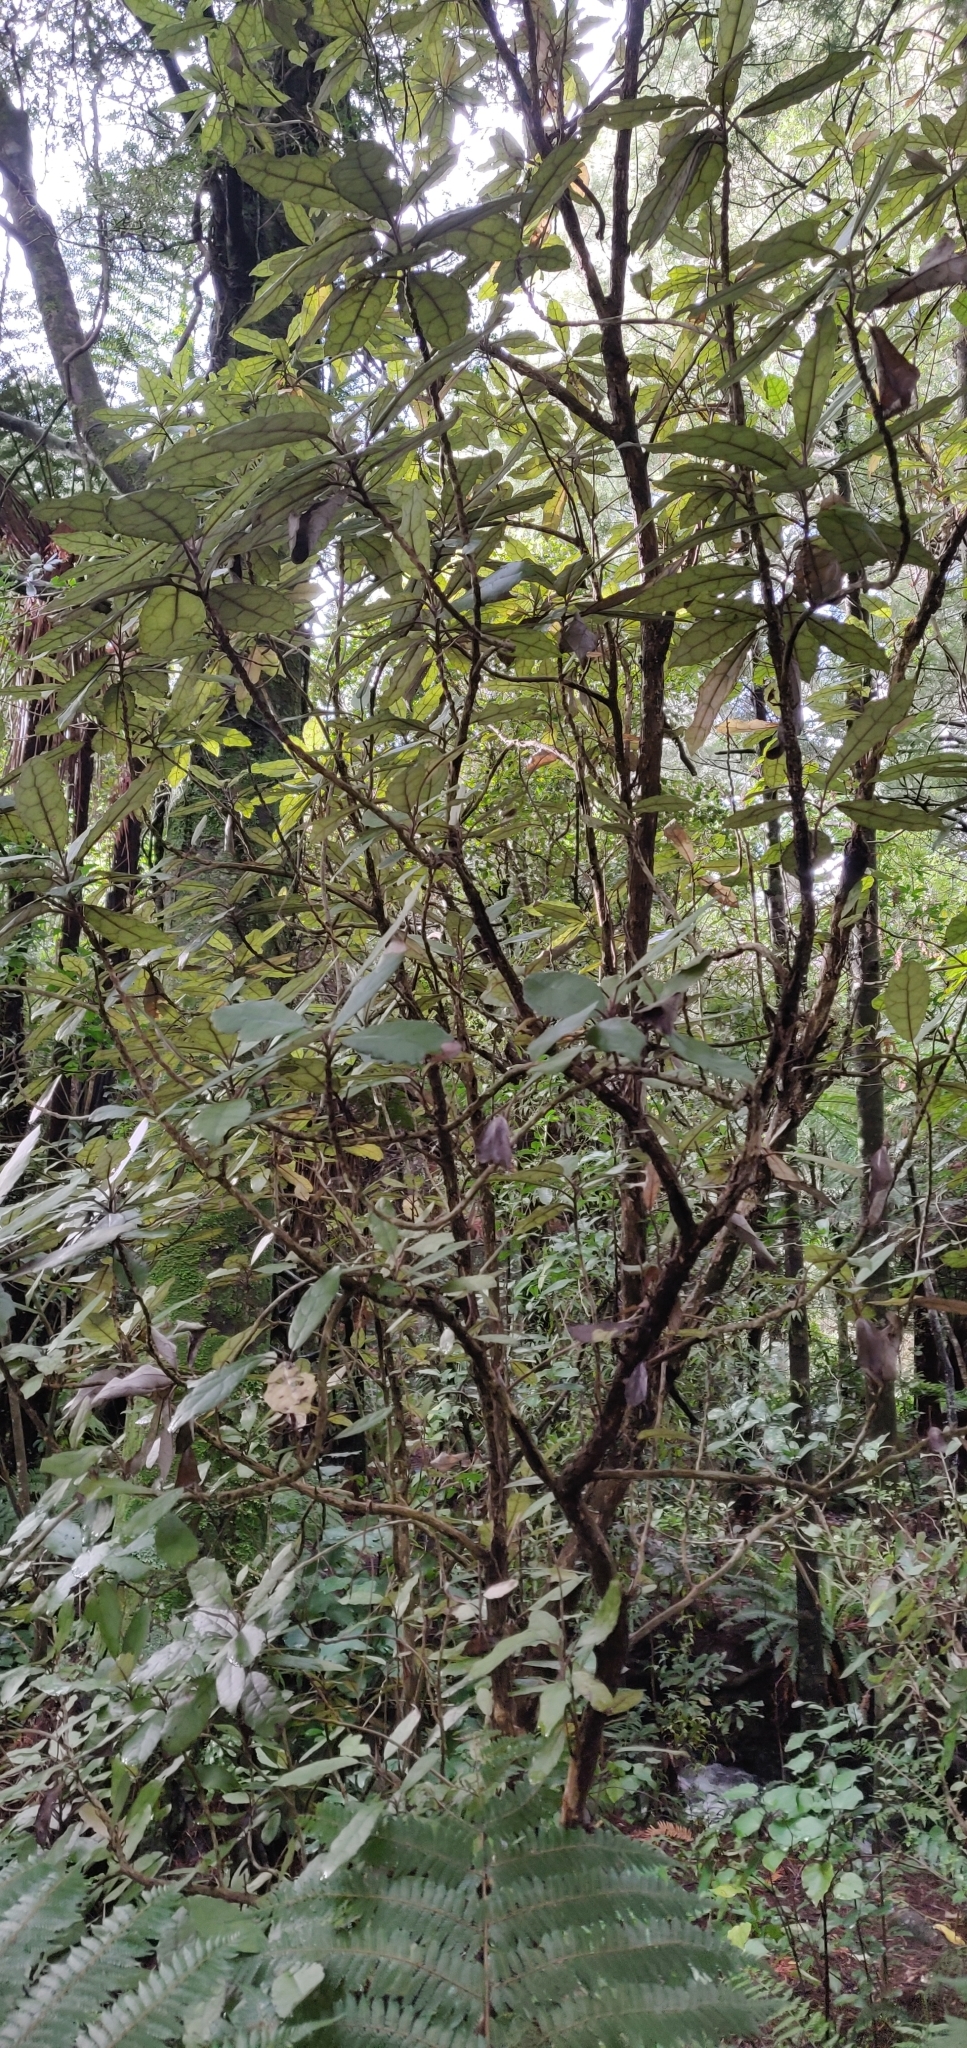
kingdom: Plantae
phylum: Tracheophyta
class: Magnoliopsida
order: Asterales
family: Asteraceae
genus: Olearia
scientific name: Olearia rani
